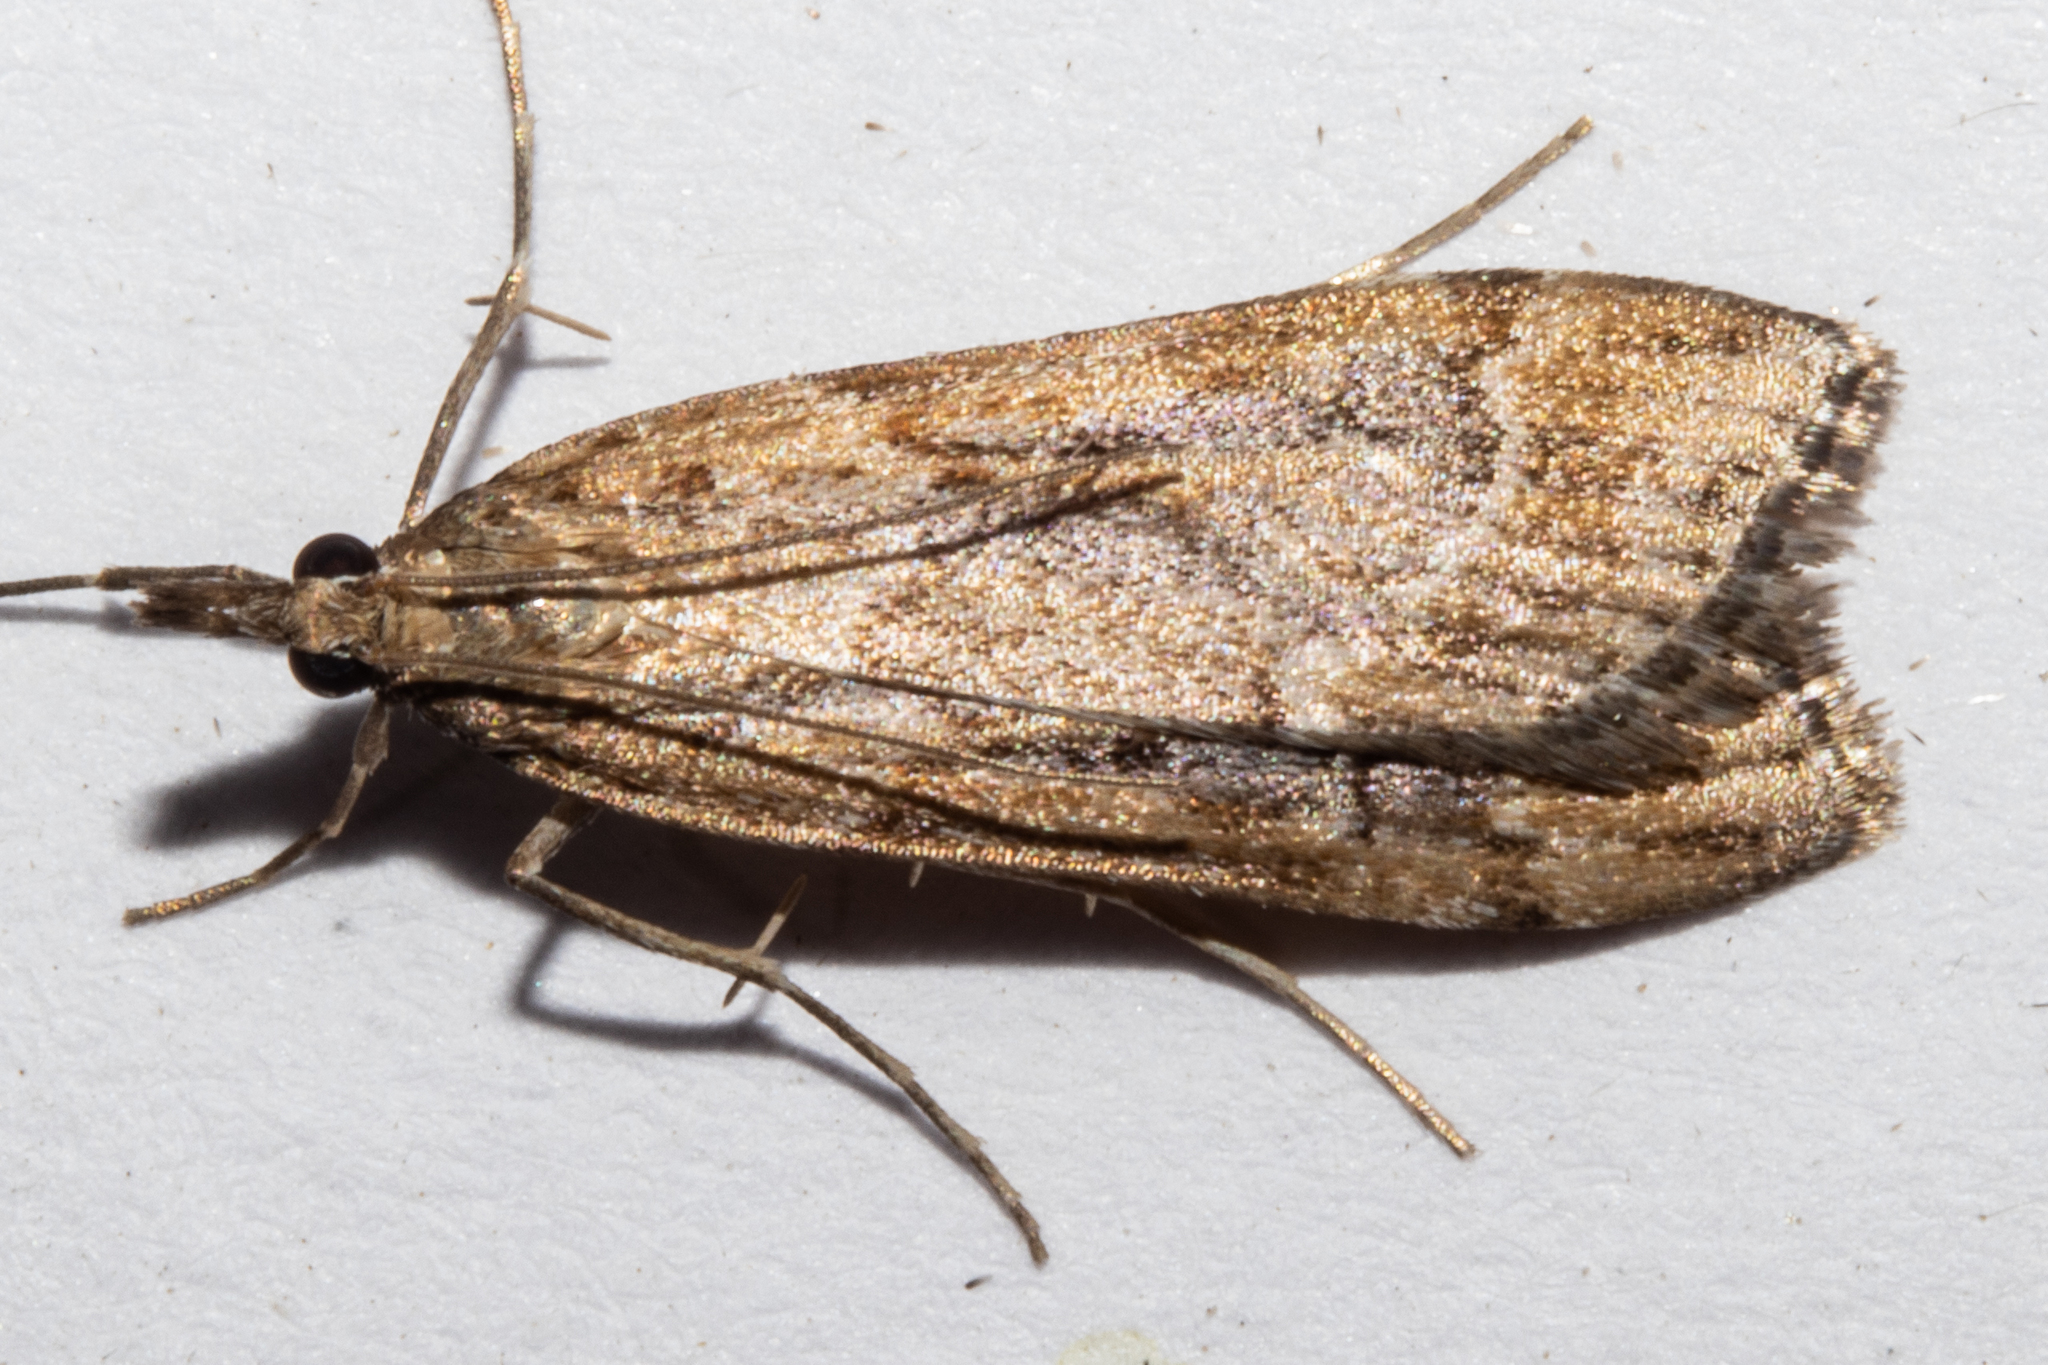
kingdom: Animalia
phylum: Arthropoda
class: Insecta
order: Lepidoptera
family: Crambidae
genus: Eudonia
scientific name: Eudonia chalara
